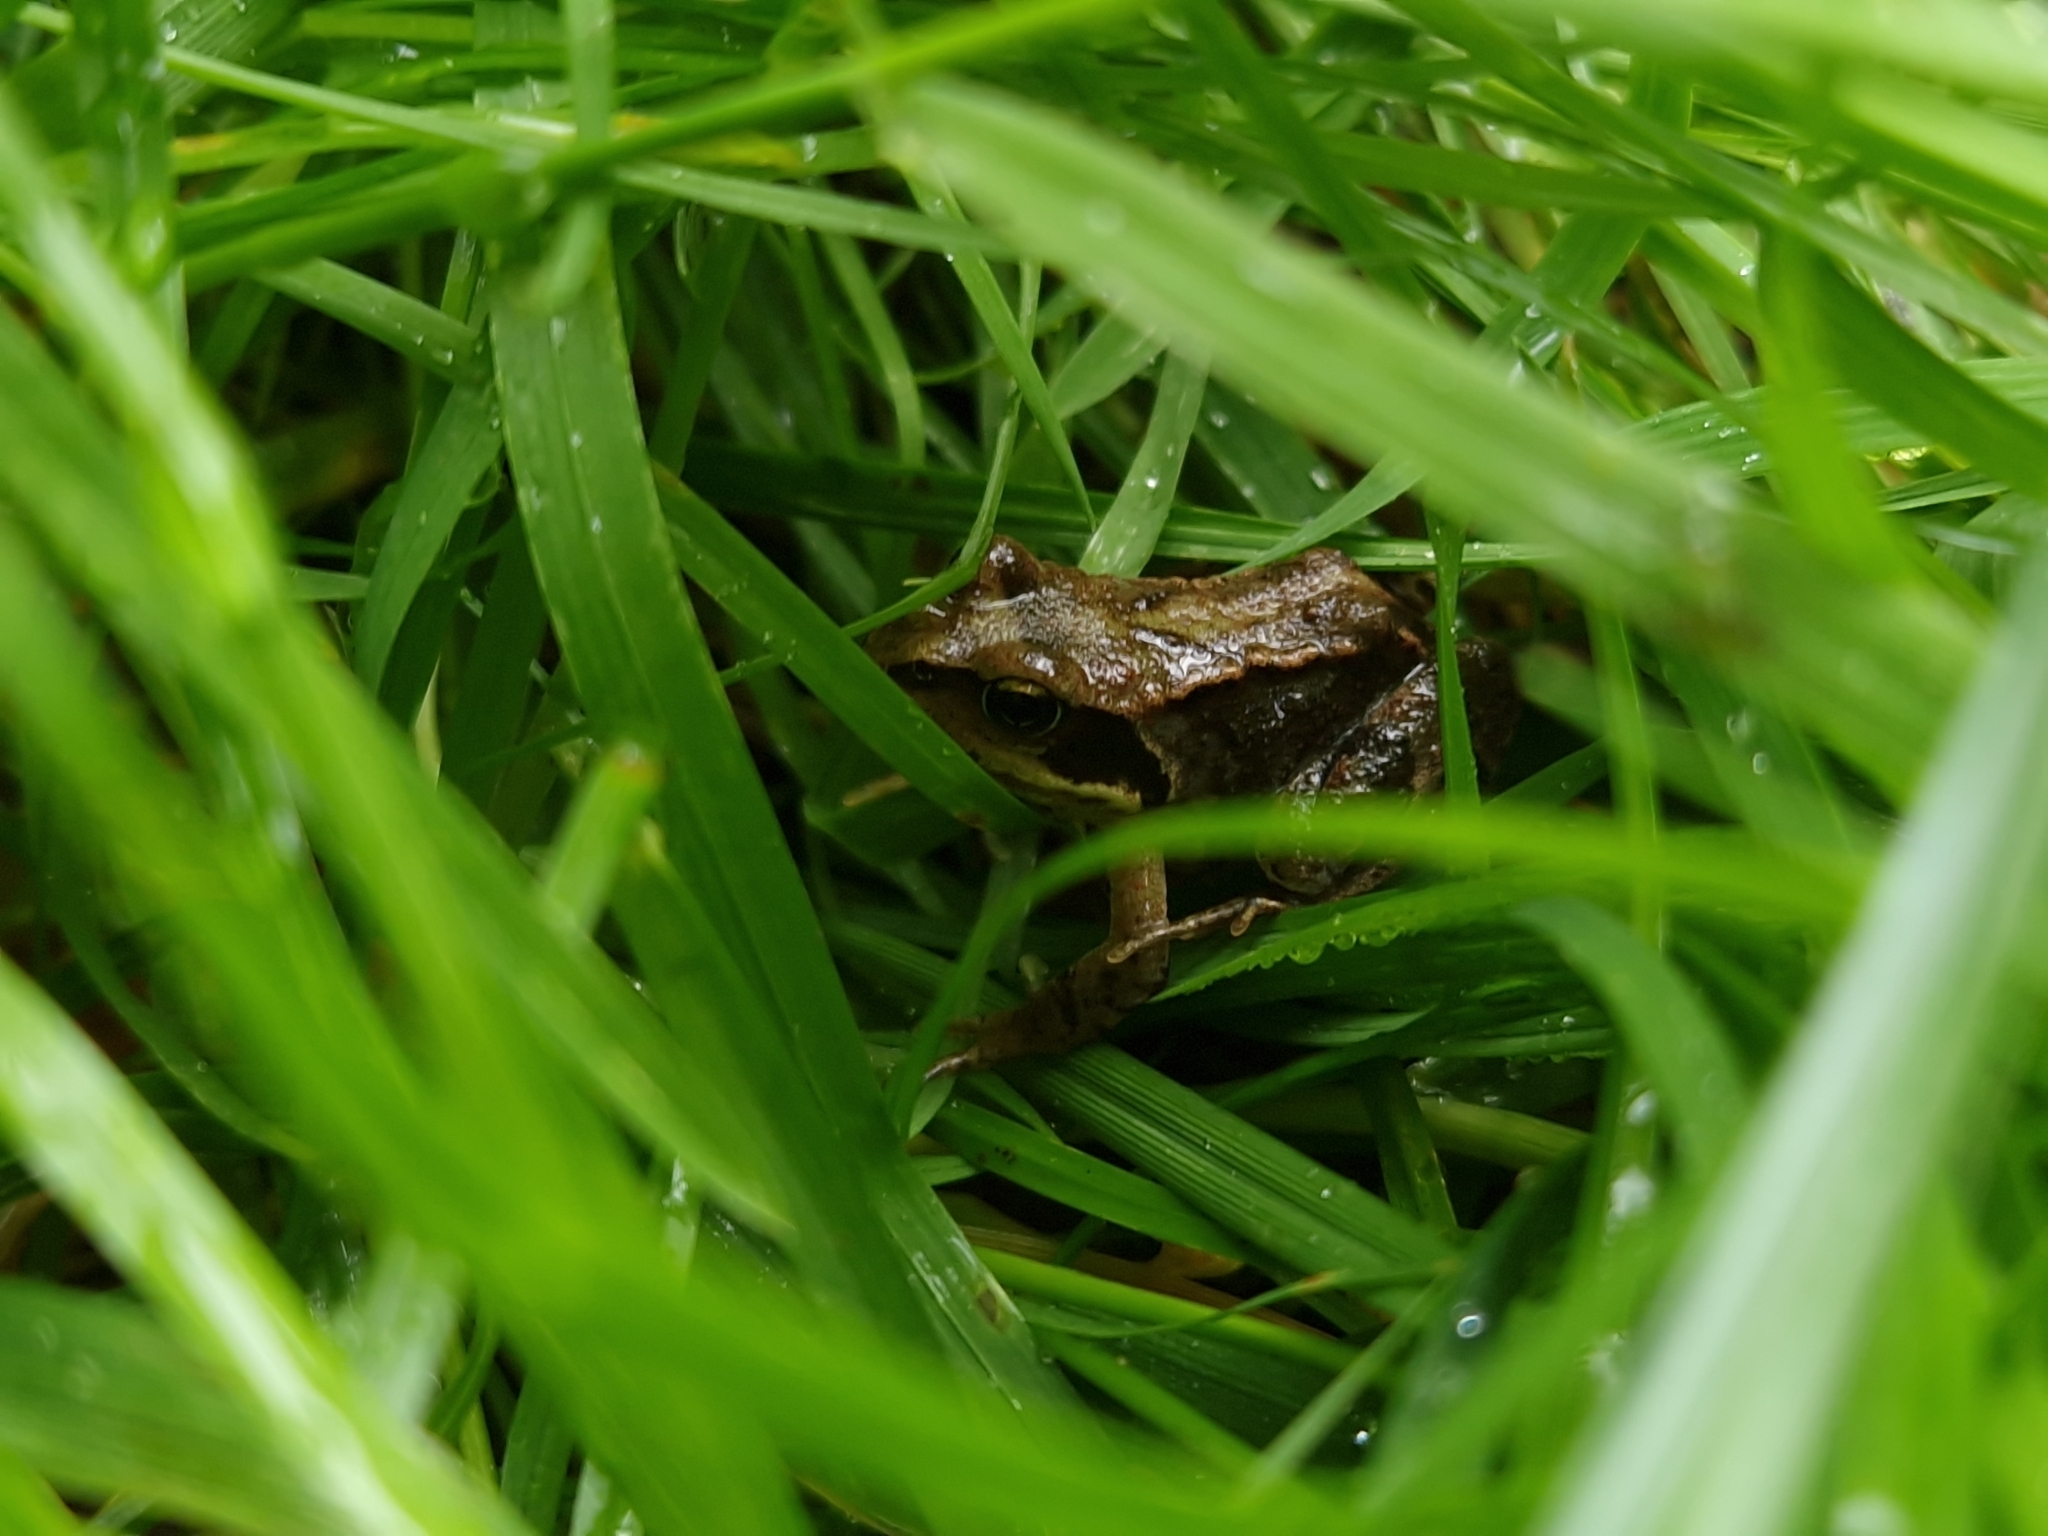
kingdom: Animalia
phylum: Chordata
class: Amphibia
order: Anura
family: Ranidae
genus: Rana
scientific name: Rana temporaria
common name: Common frog
